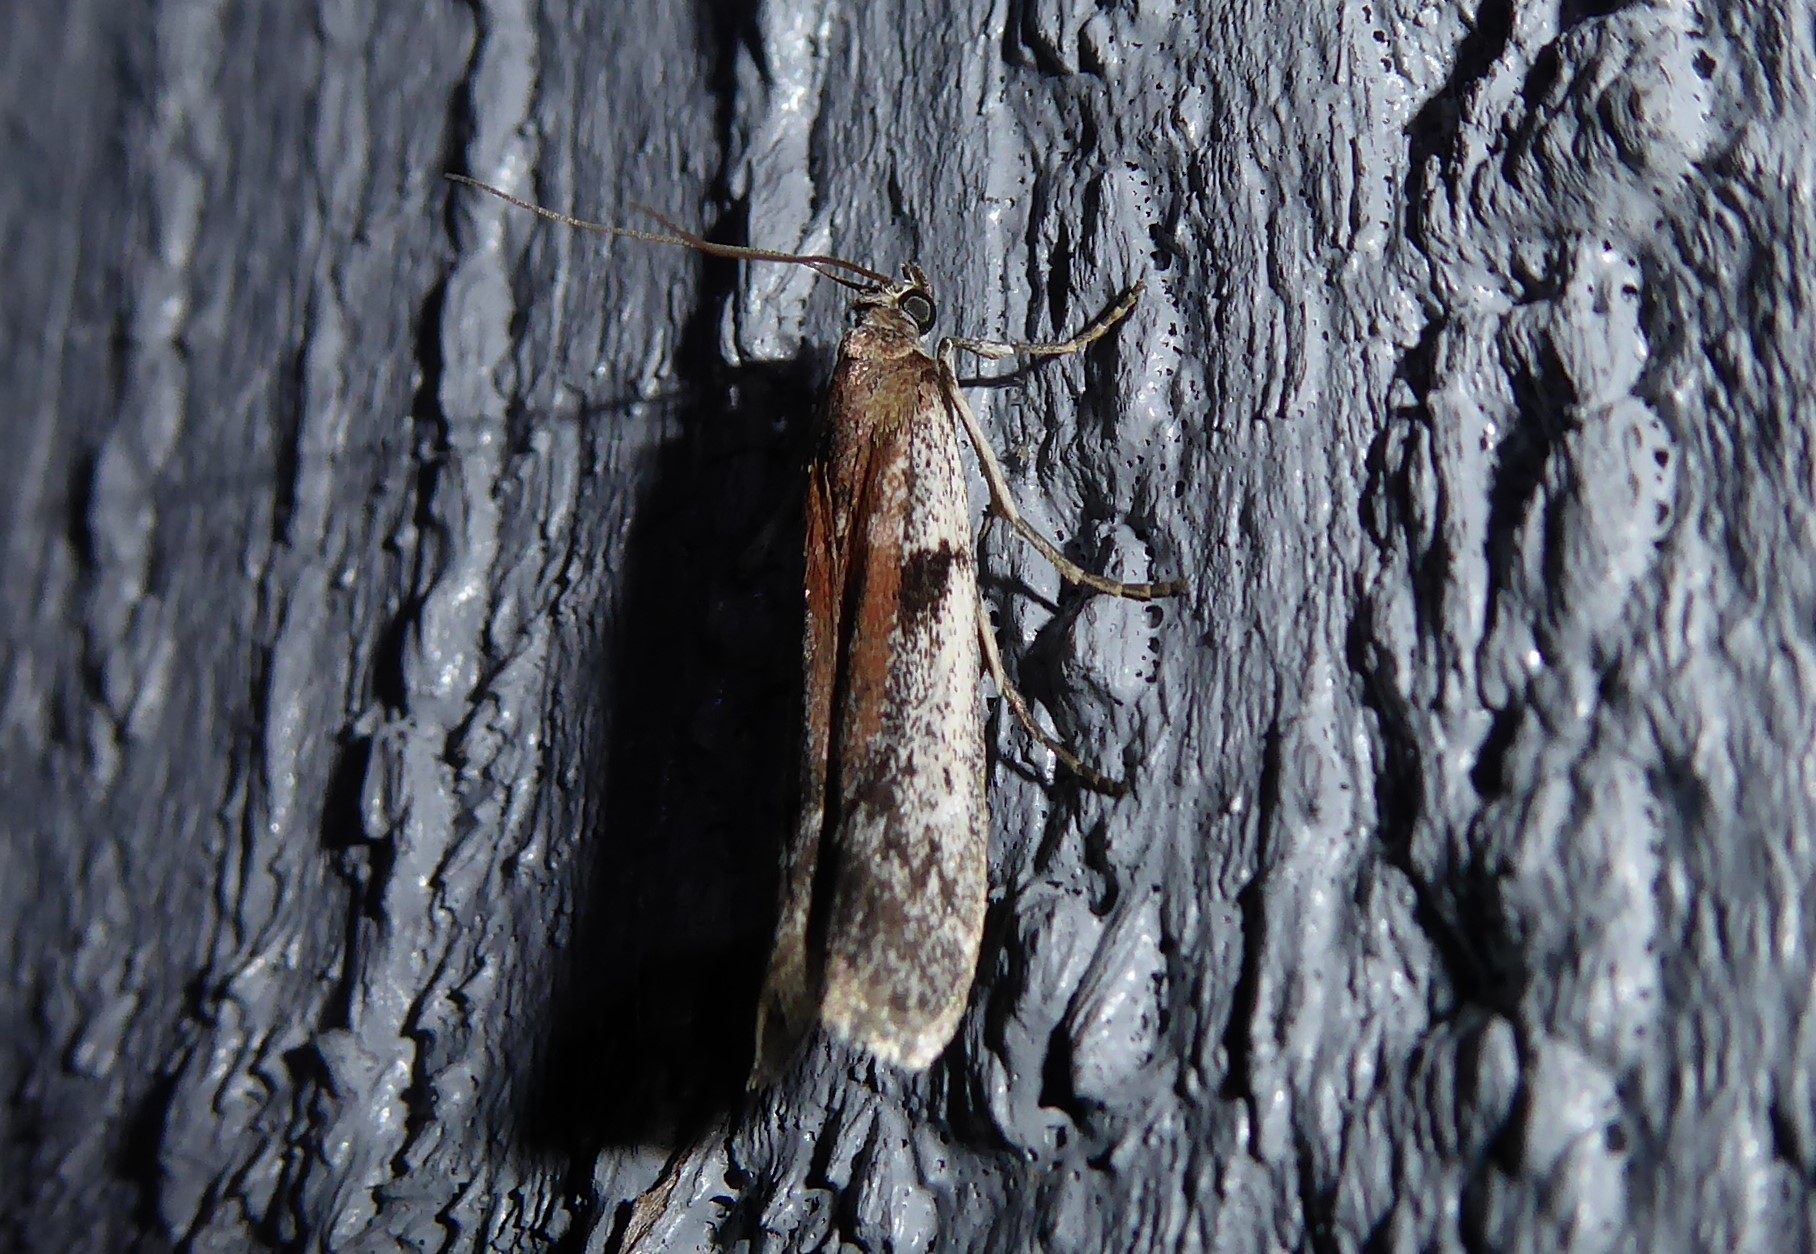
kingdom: Animalia
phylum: Arthropoda
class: Insecta
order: Lepidoptera
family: Pyralidae
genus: Patagoniodes
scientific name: Patagoniodes farinaria
